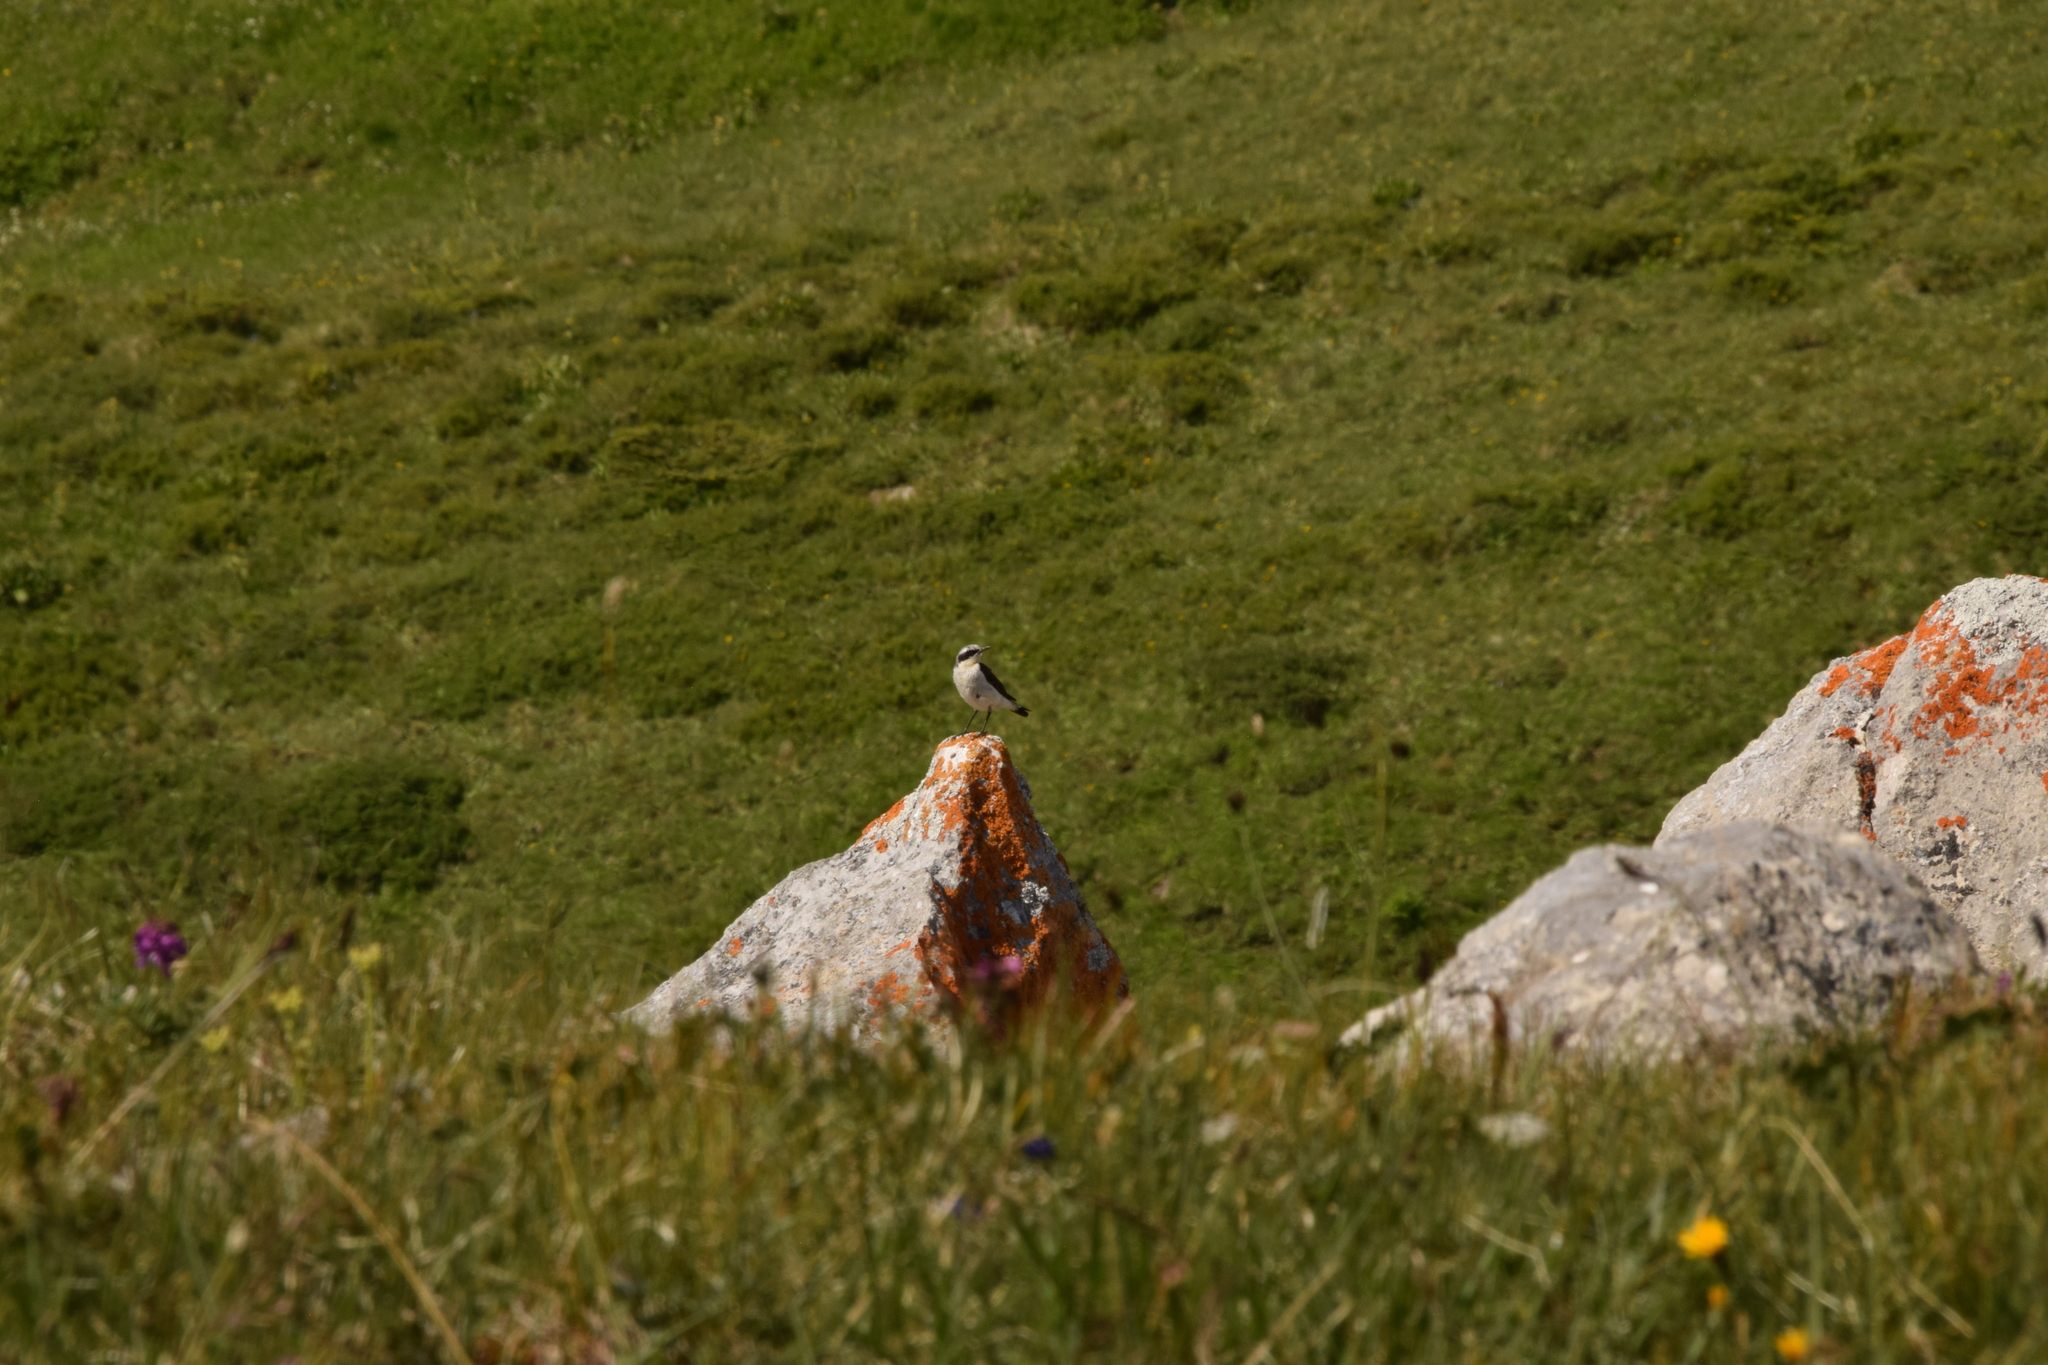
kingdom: Animalia
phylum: Chordata
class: Aves
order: Passeriformes
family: Muscicapidae
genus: Oenanthe
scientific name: Oenanthe oenanthe
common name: Northern wheatear
